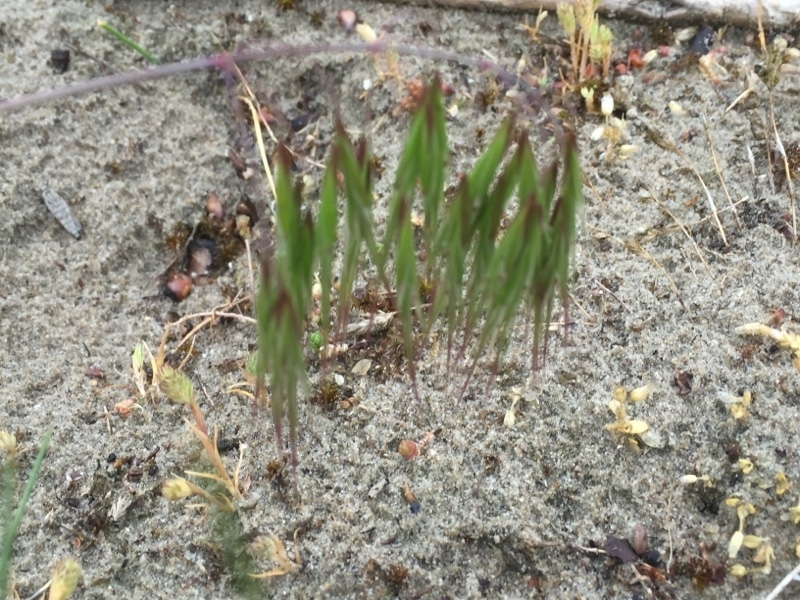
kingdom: Plantae
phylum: Tracheophyta
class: Liliopsida
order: Poales
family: Poaceae
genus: Bromus
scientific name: Bromus tectorum
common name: Cheatgrass
